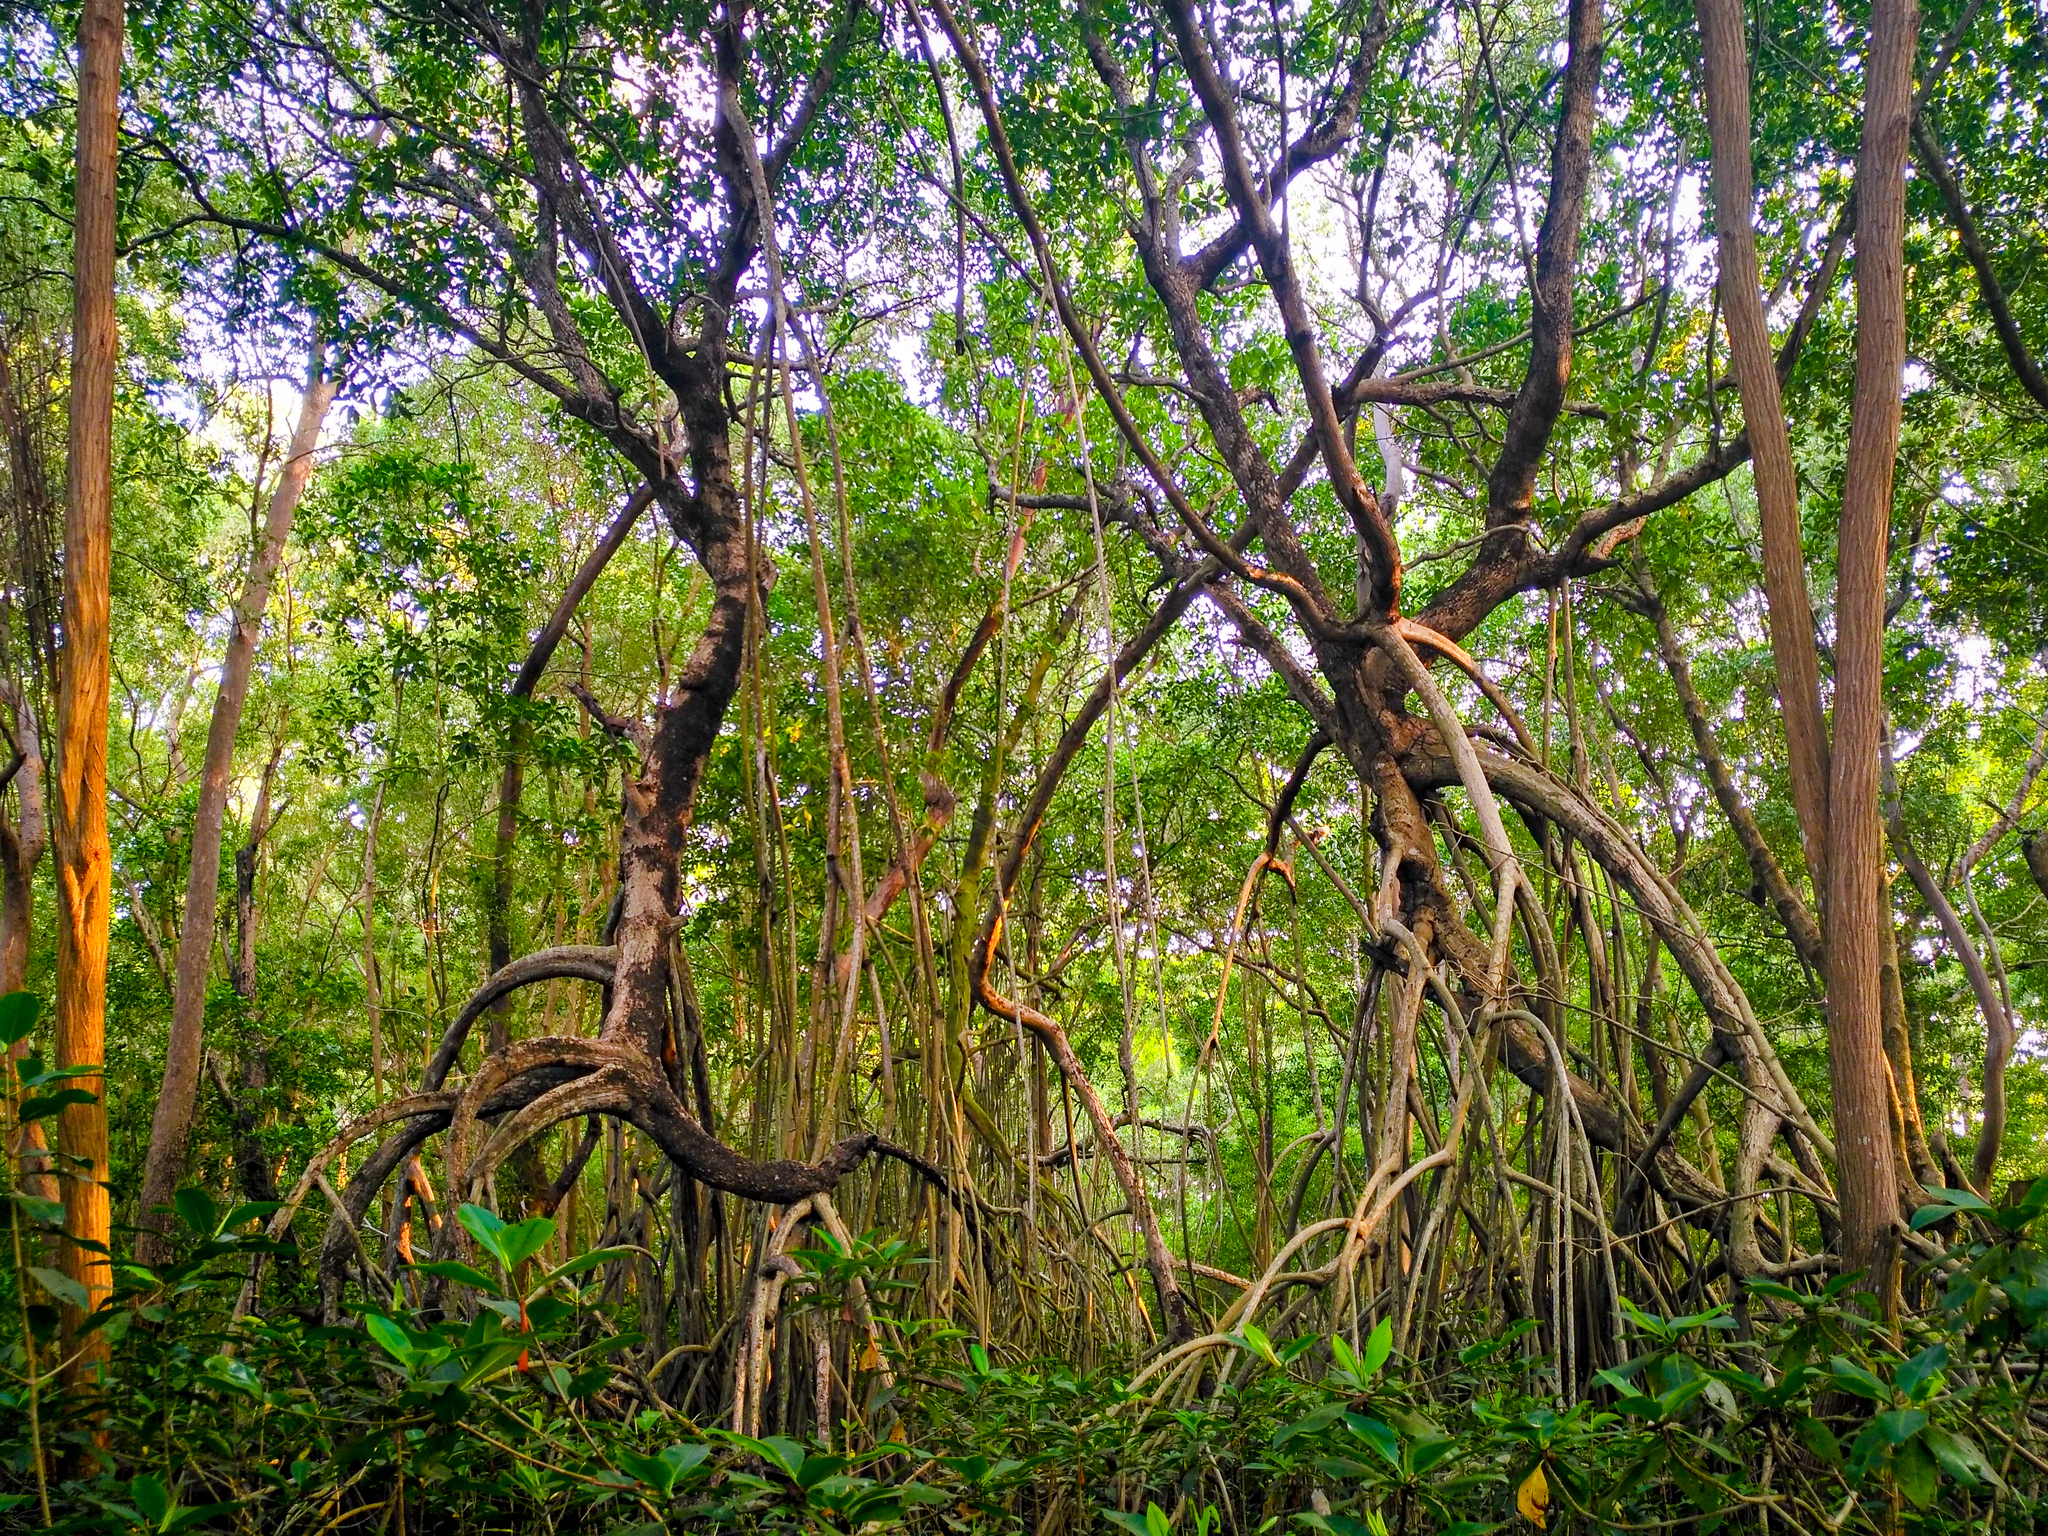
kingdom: Plantae
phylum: Tracheophyta
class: Magnoliopsida
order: Malpighiales
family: Rhizophoraceae
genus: Rhizophora
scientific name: Rhizophora mangle
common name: Red mangrove
